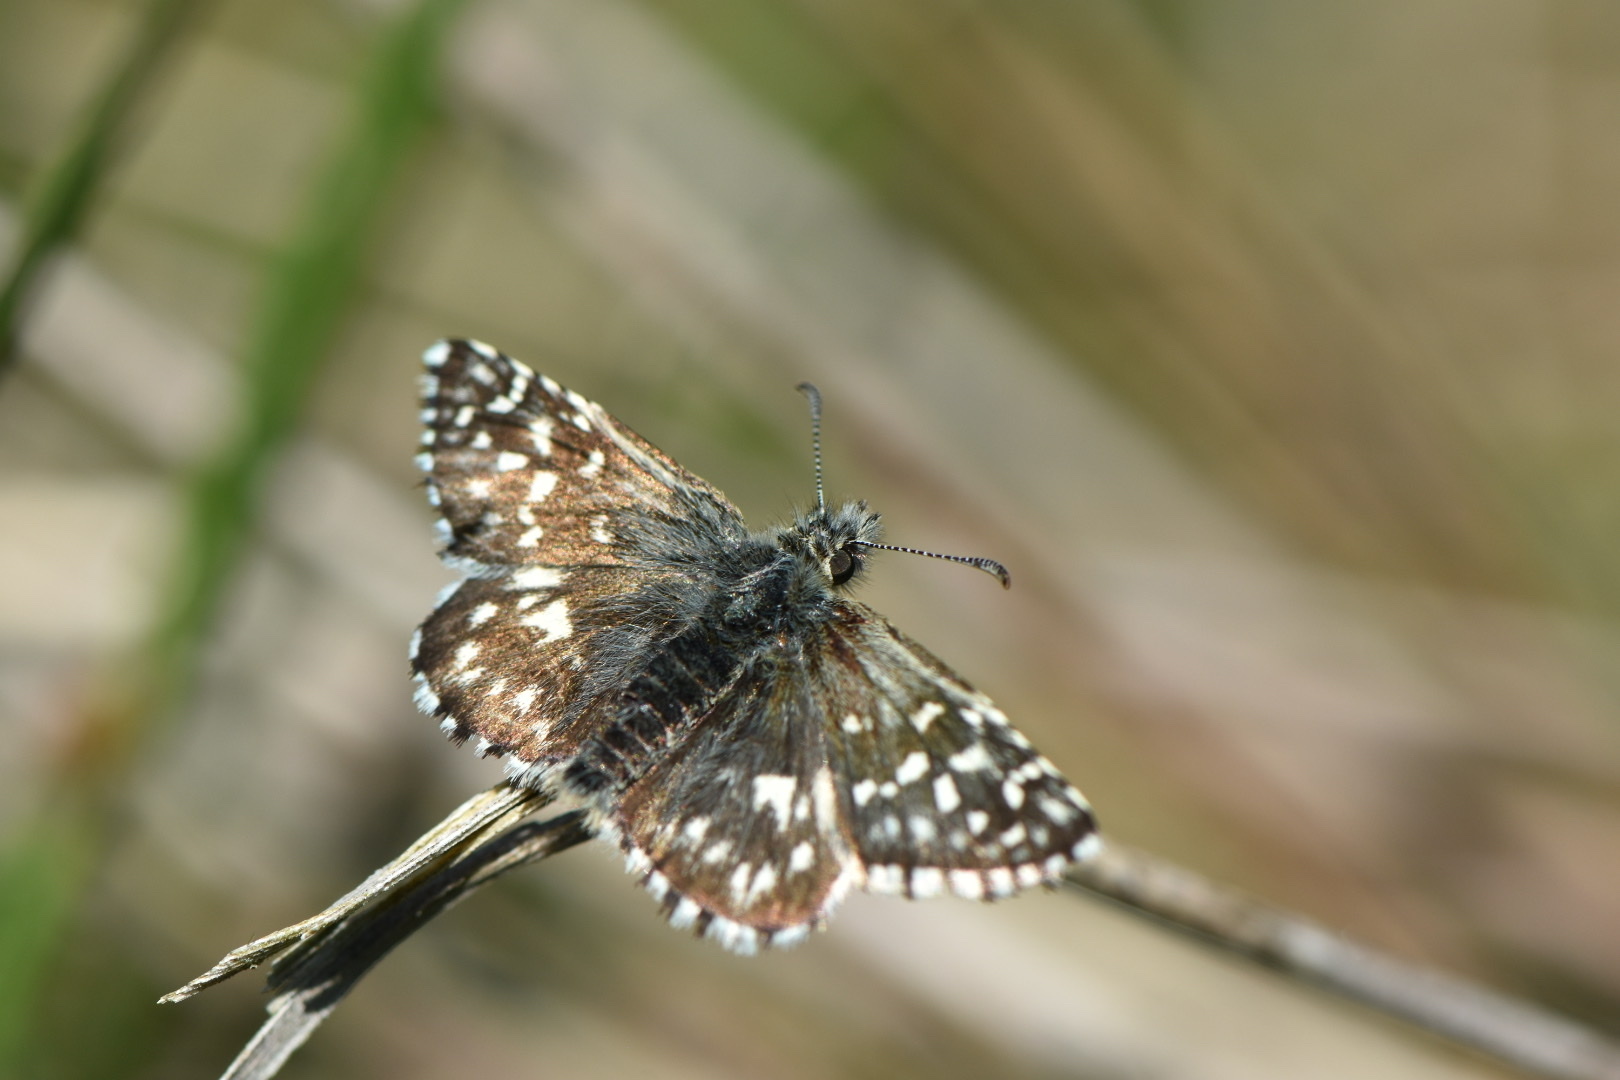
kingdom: Animalia
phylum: Arthropoda
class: Insecta
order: Lepidoptera
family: Hesperiidae
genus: Pyrgus
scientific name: Pyrgus malvae
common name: Grizzled skipper
